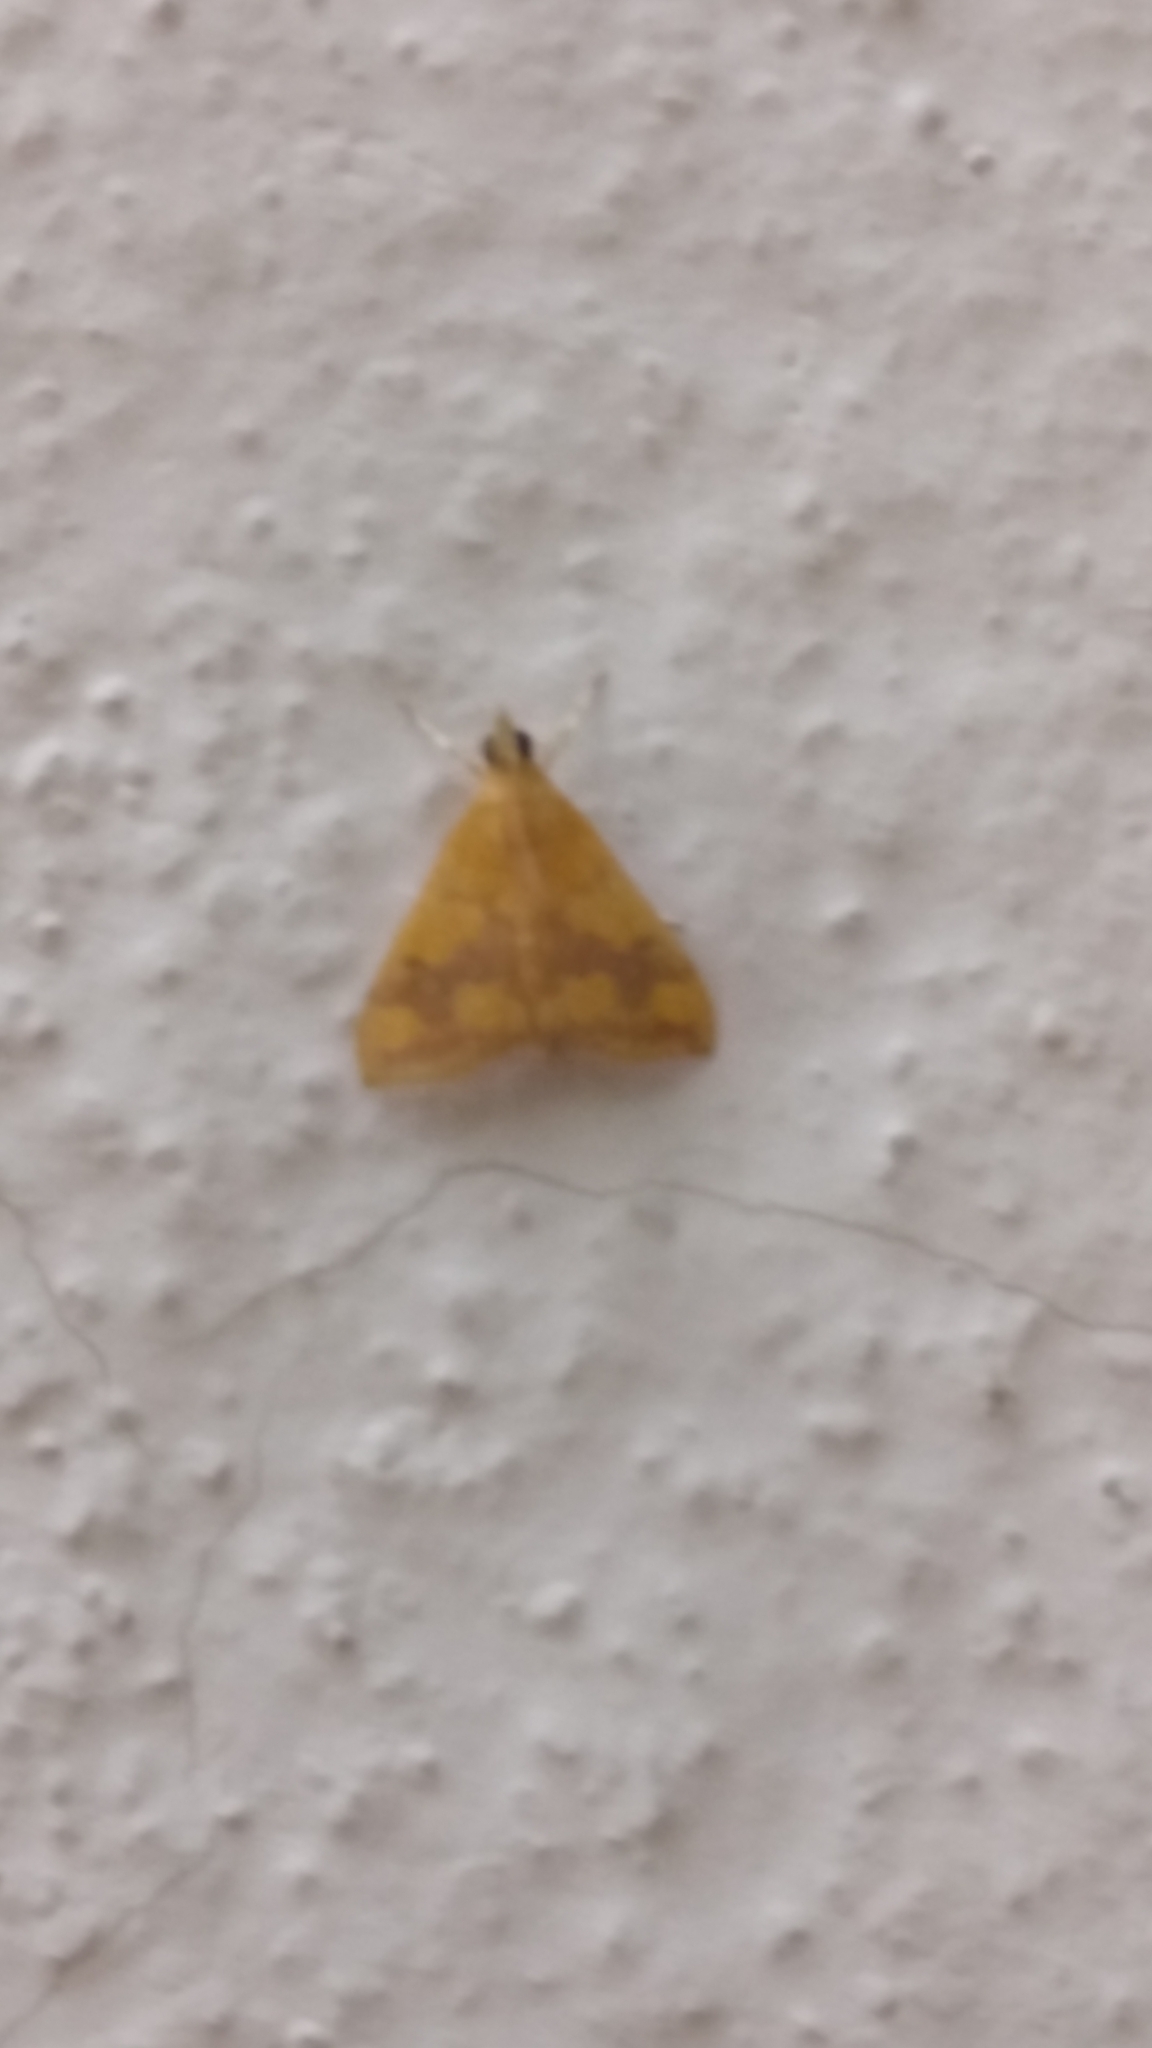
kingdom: Animalia
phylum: Arthropoda
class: Insecta
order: Lepidoptera
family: Crambidae
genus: Pyrausta
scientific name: Pyrausta phoenicealis
